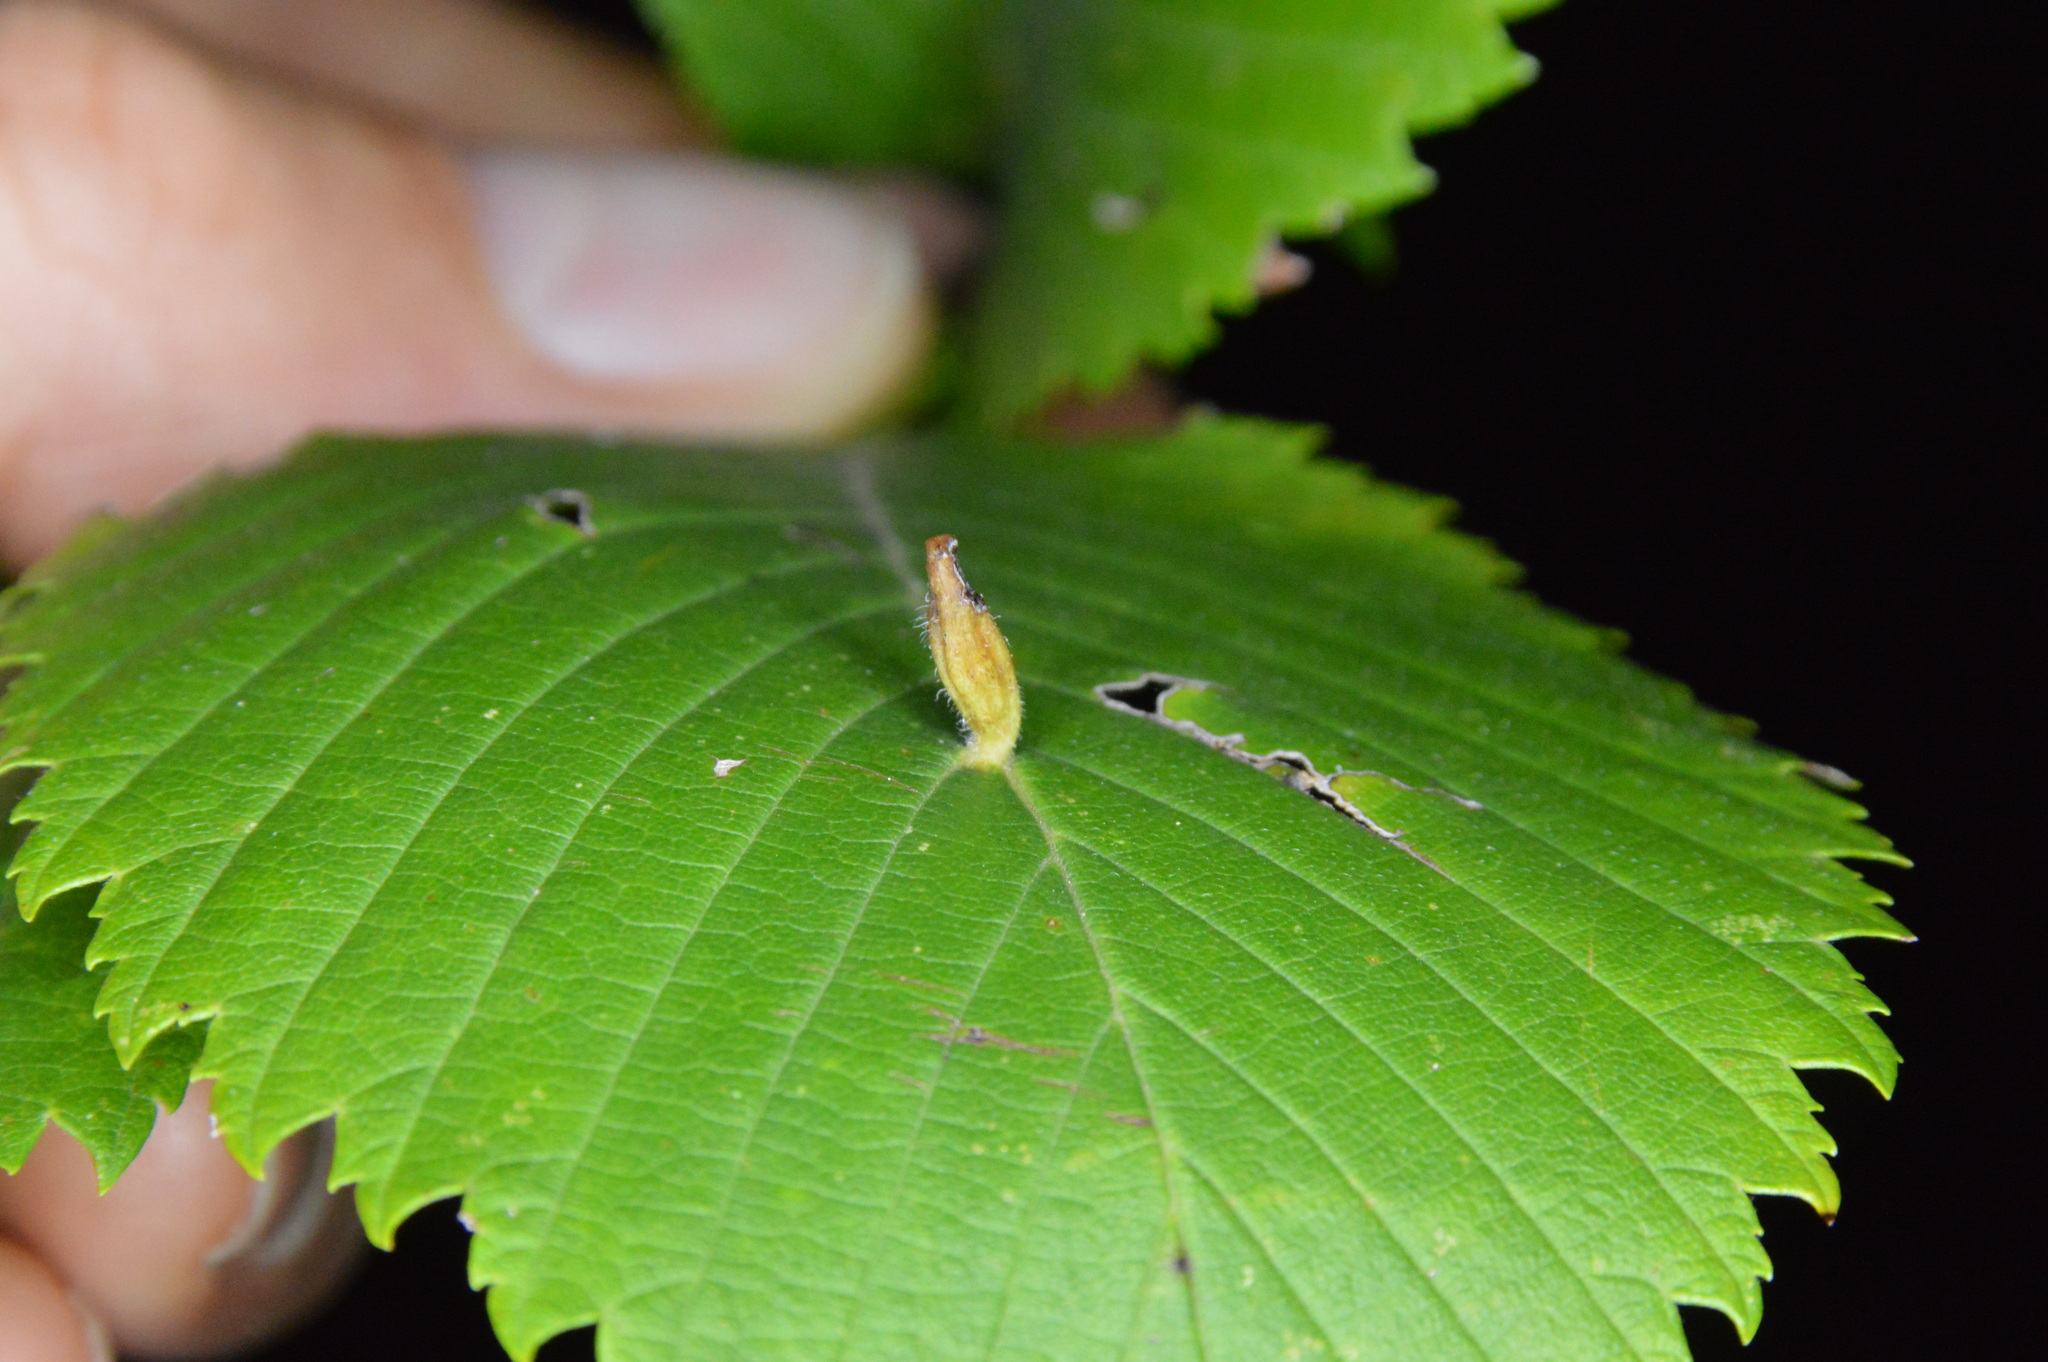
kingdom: Animalia
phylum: Arthropoda
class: Arachnida
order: Trombidiformes
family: Eriophyidae
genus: Aceria
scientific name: Aceria
